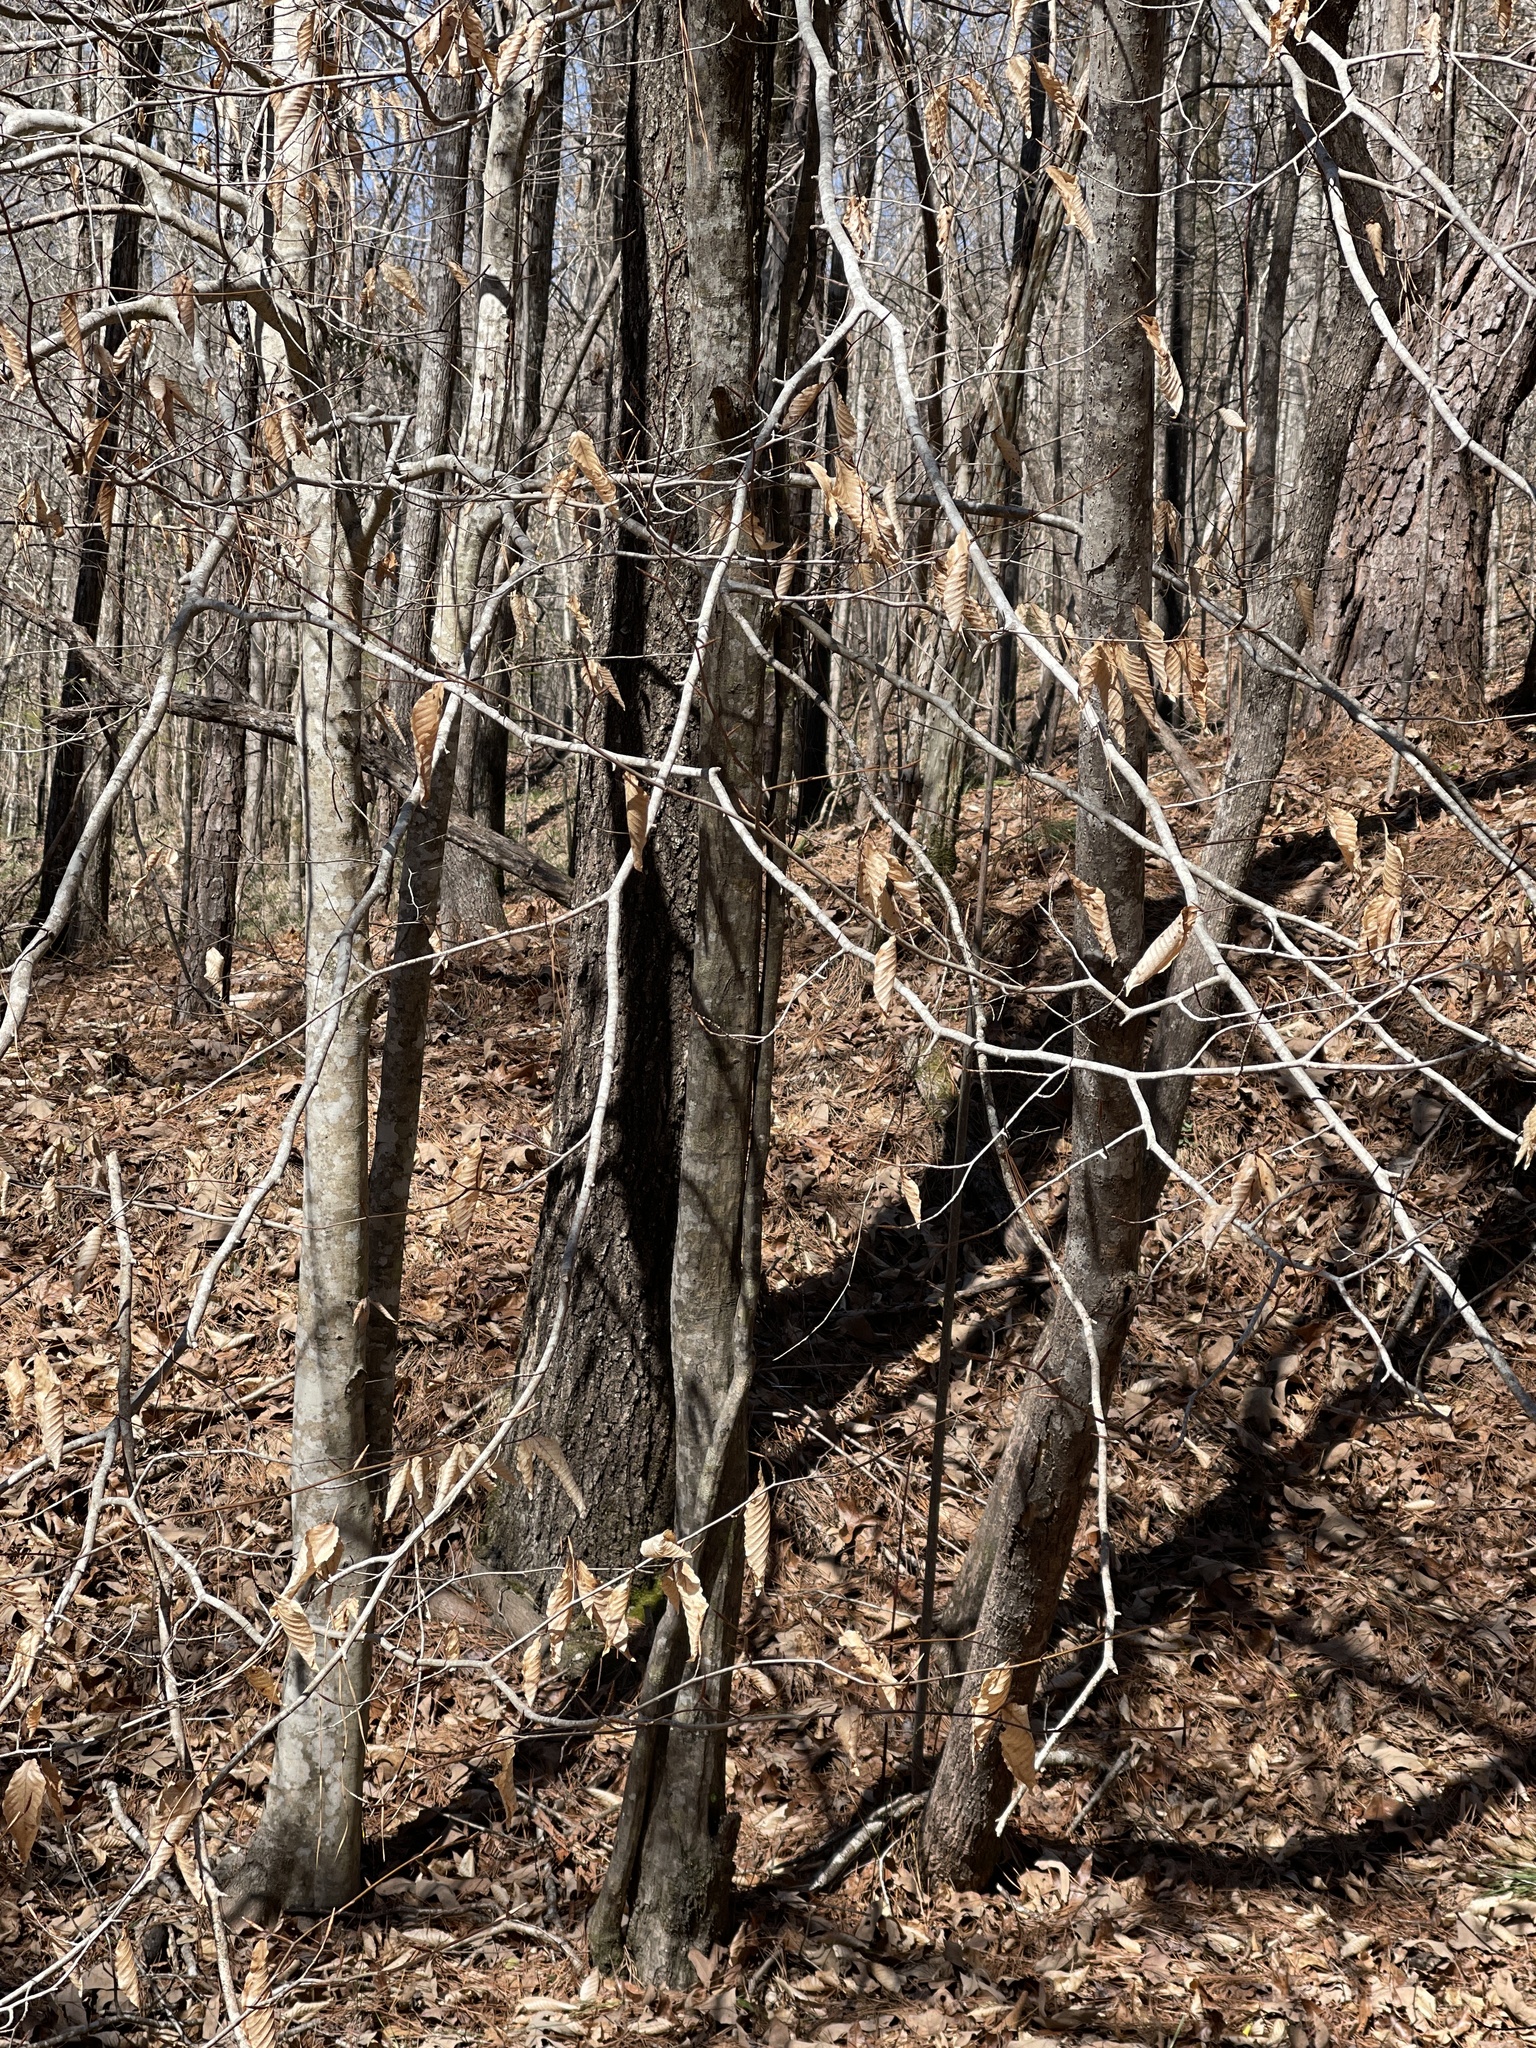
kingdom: Plantae
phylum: Tracheophyta
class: Magnoliopsida
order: Fagales
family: Fagaceae
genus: Fagus
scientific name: Fagus grandifolia
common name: American beech
